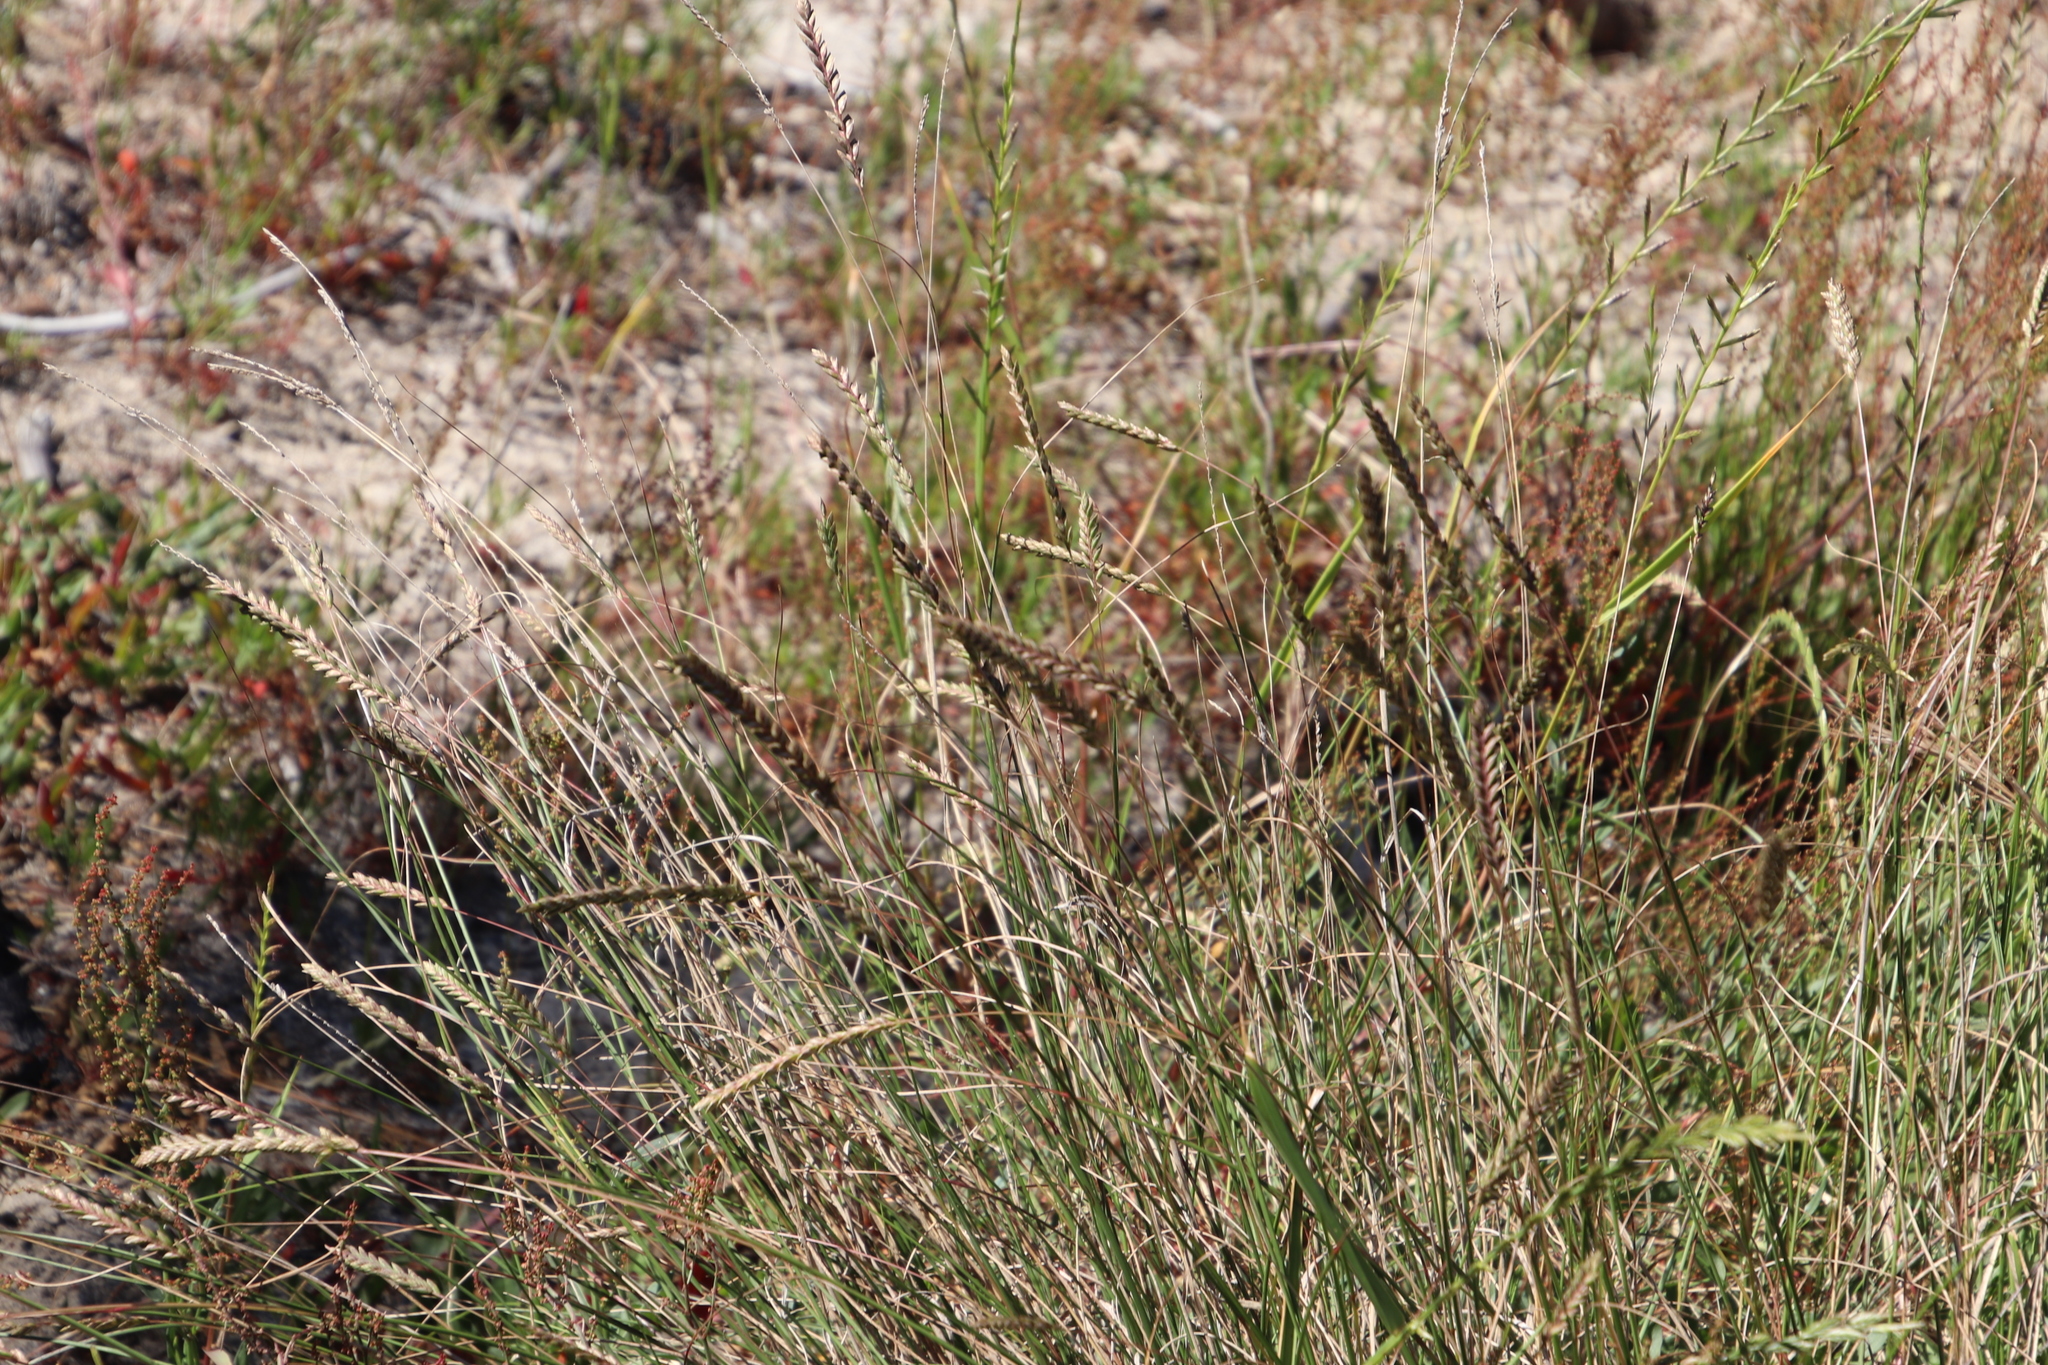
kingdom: Plantae
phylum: Tracheophyta
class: Liliopsida
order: Poales
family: Poaceae
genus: Tribolium
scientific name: Tribolium uniolae
